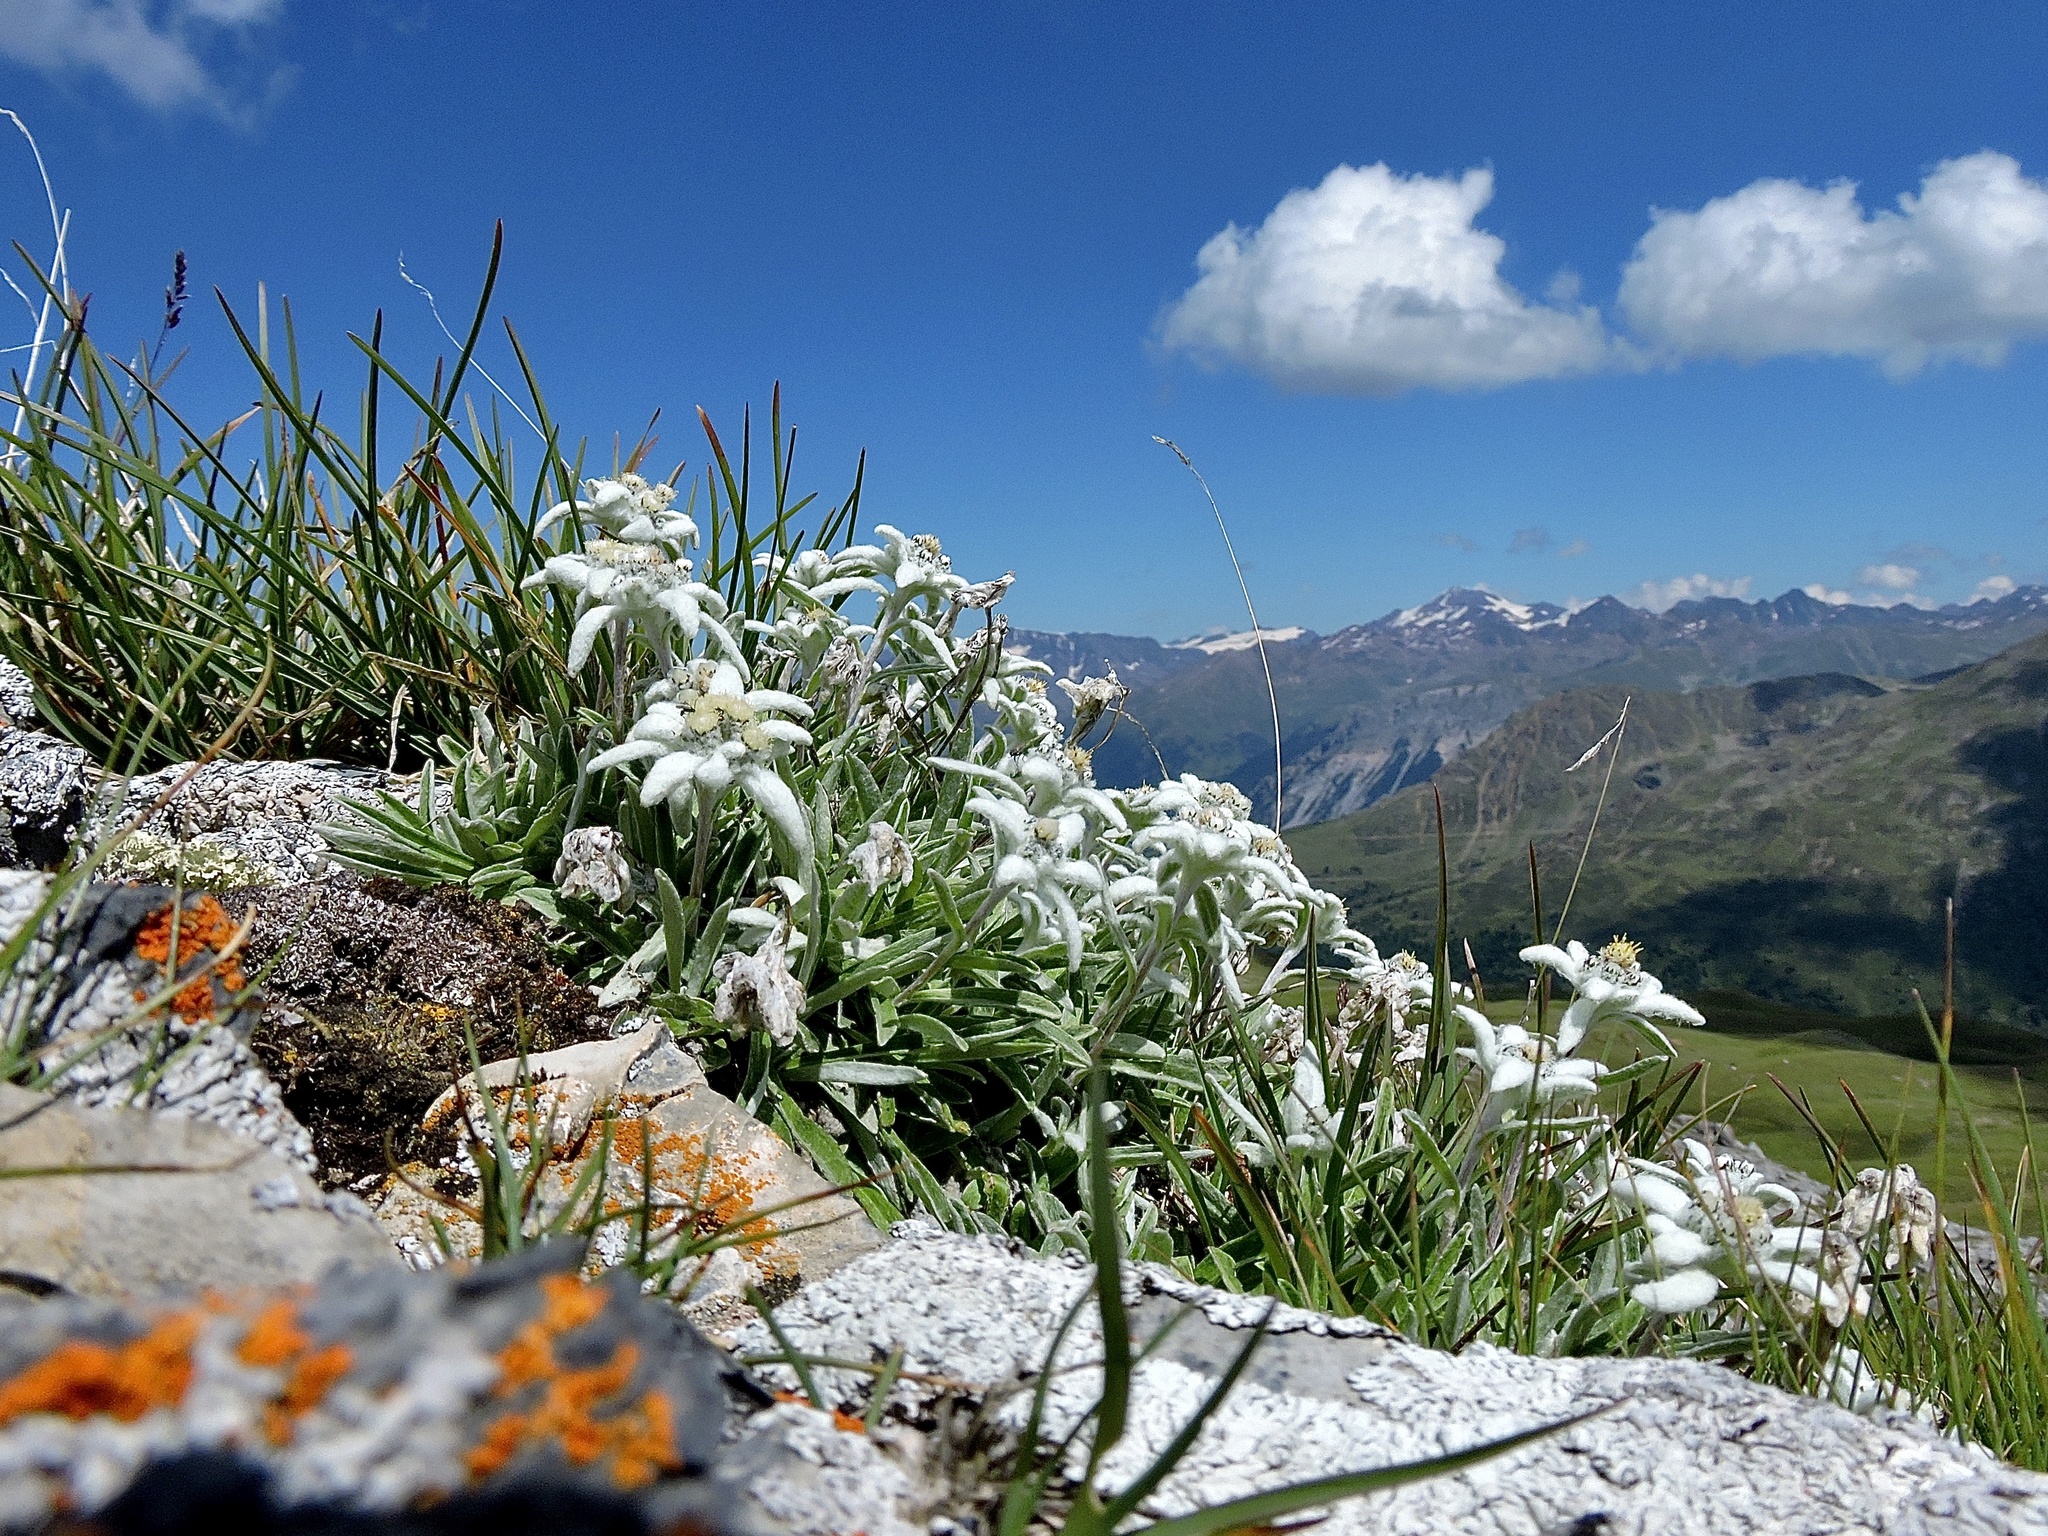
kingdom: Plantae
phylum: Tracheophyta
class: Magnoliopsida
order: Asterales
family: Asteraceae
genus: Leontopodium
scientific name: Leontopodium nivale
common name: Edelweiss
